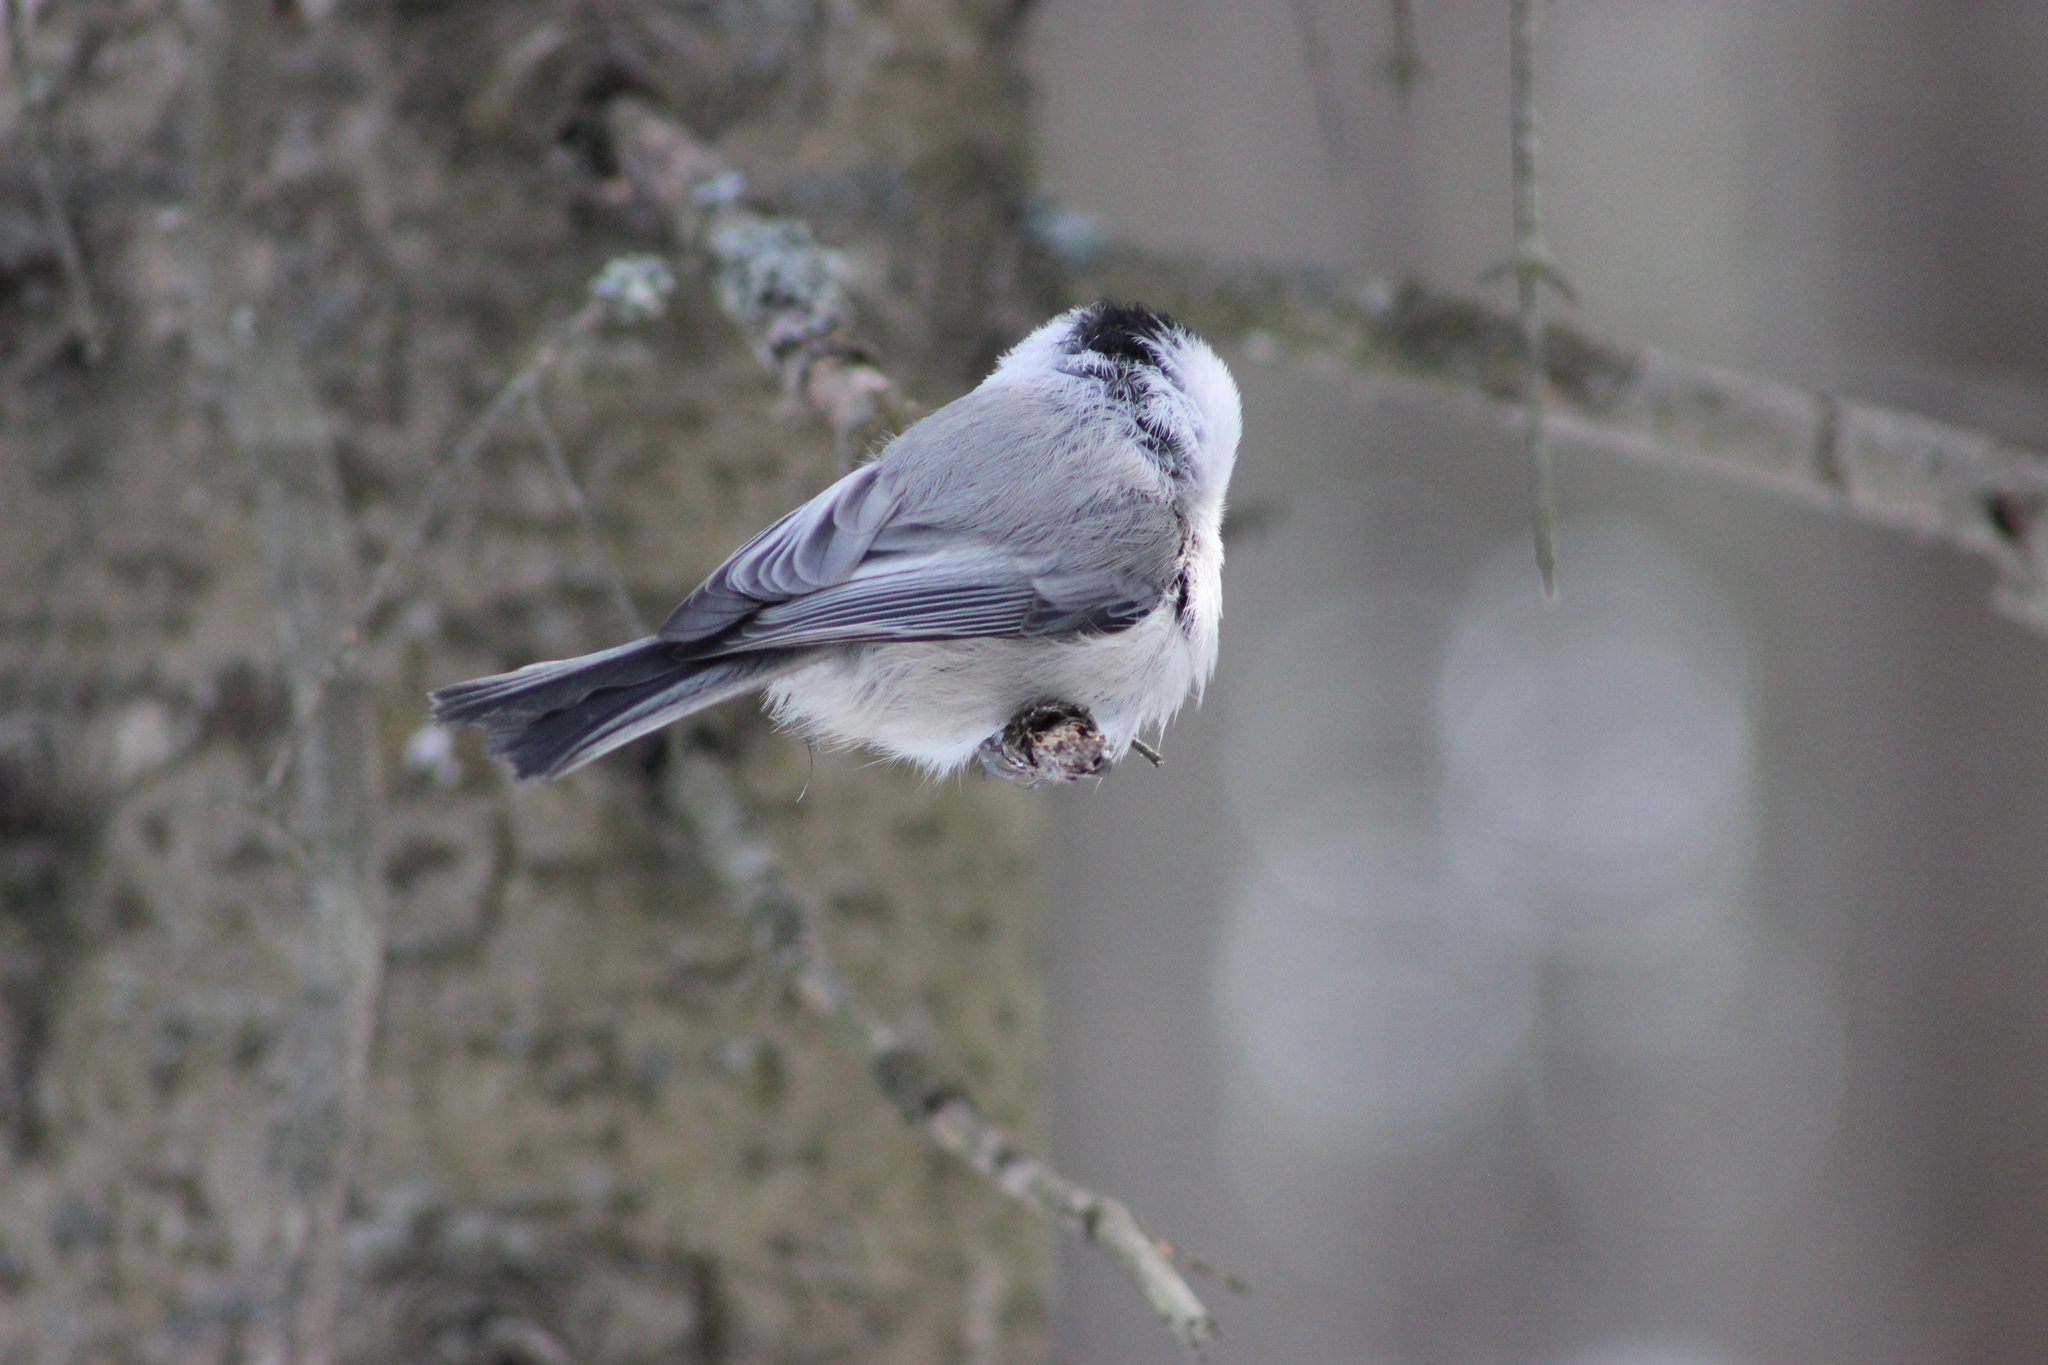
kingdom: Animalia
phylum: Chordata
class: Aves
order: Passeriformes
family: Paridae
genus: Poecile
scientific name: Poecile montanus
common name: Willow tit
